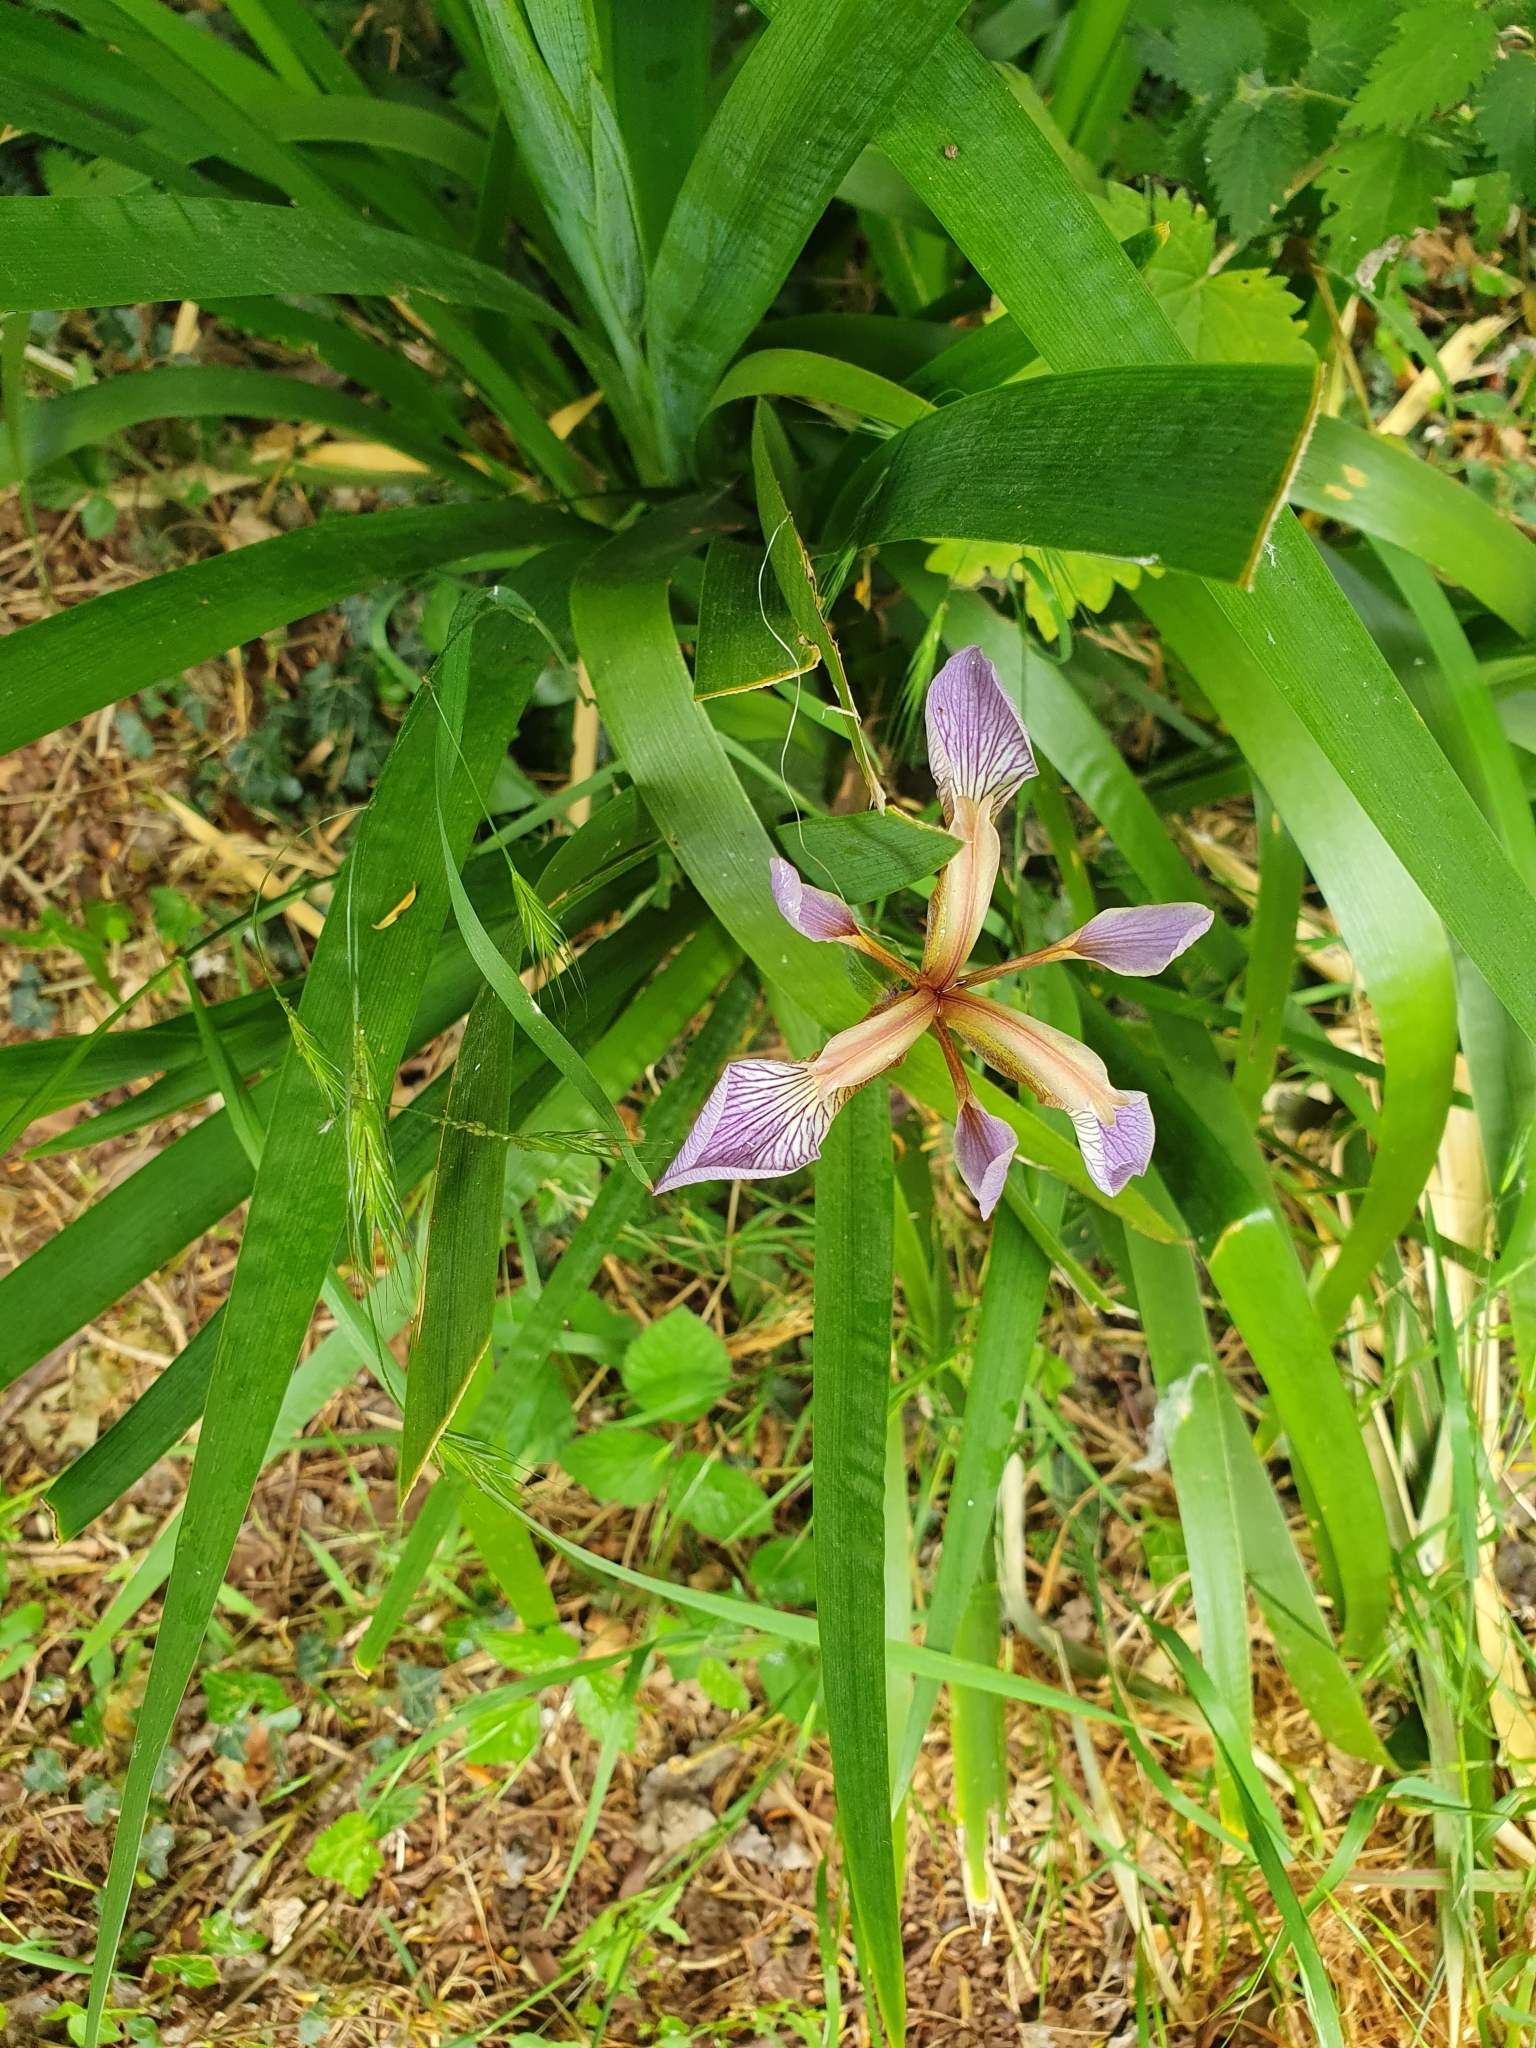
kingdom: Plantae
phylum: Tracheophyta
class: Liliopsida
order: Asparagales
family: Iridaceae
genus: Iris
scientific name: Iris foetidissima
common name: Stinking iris
